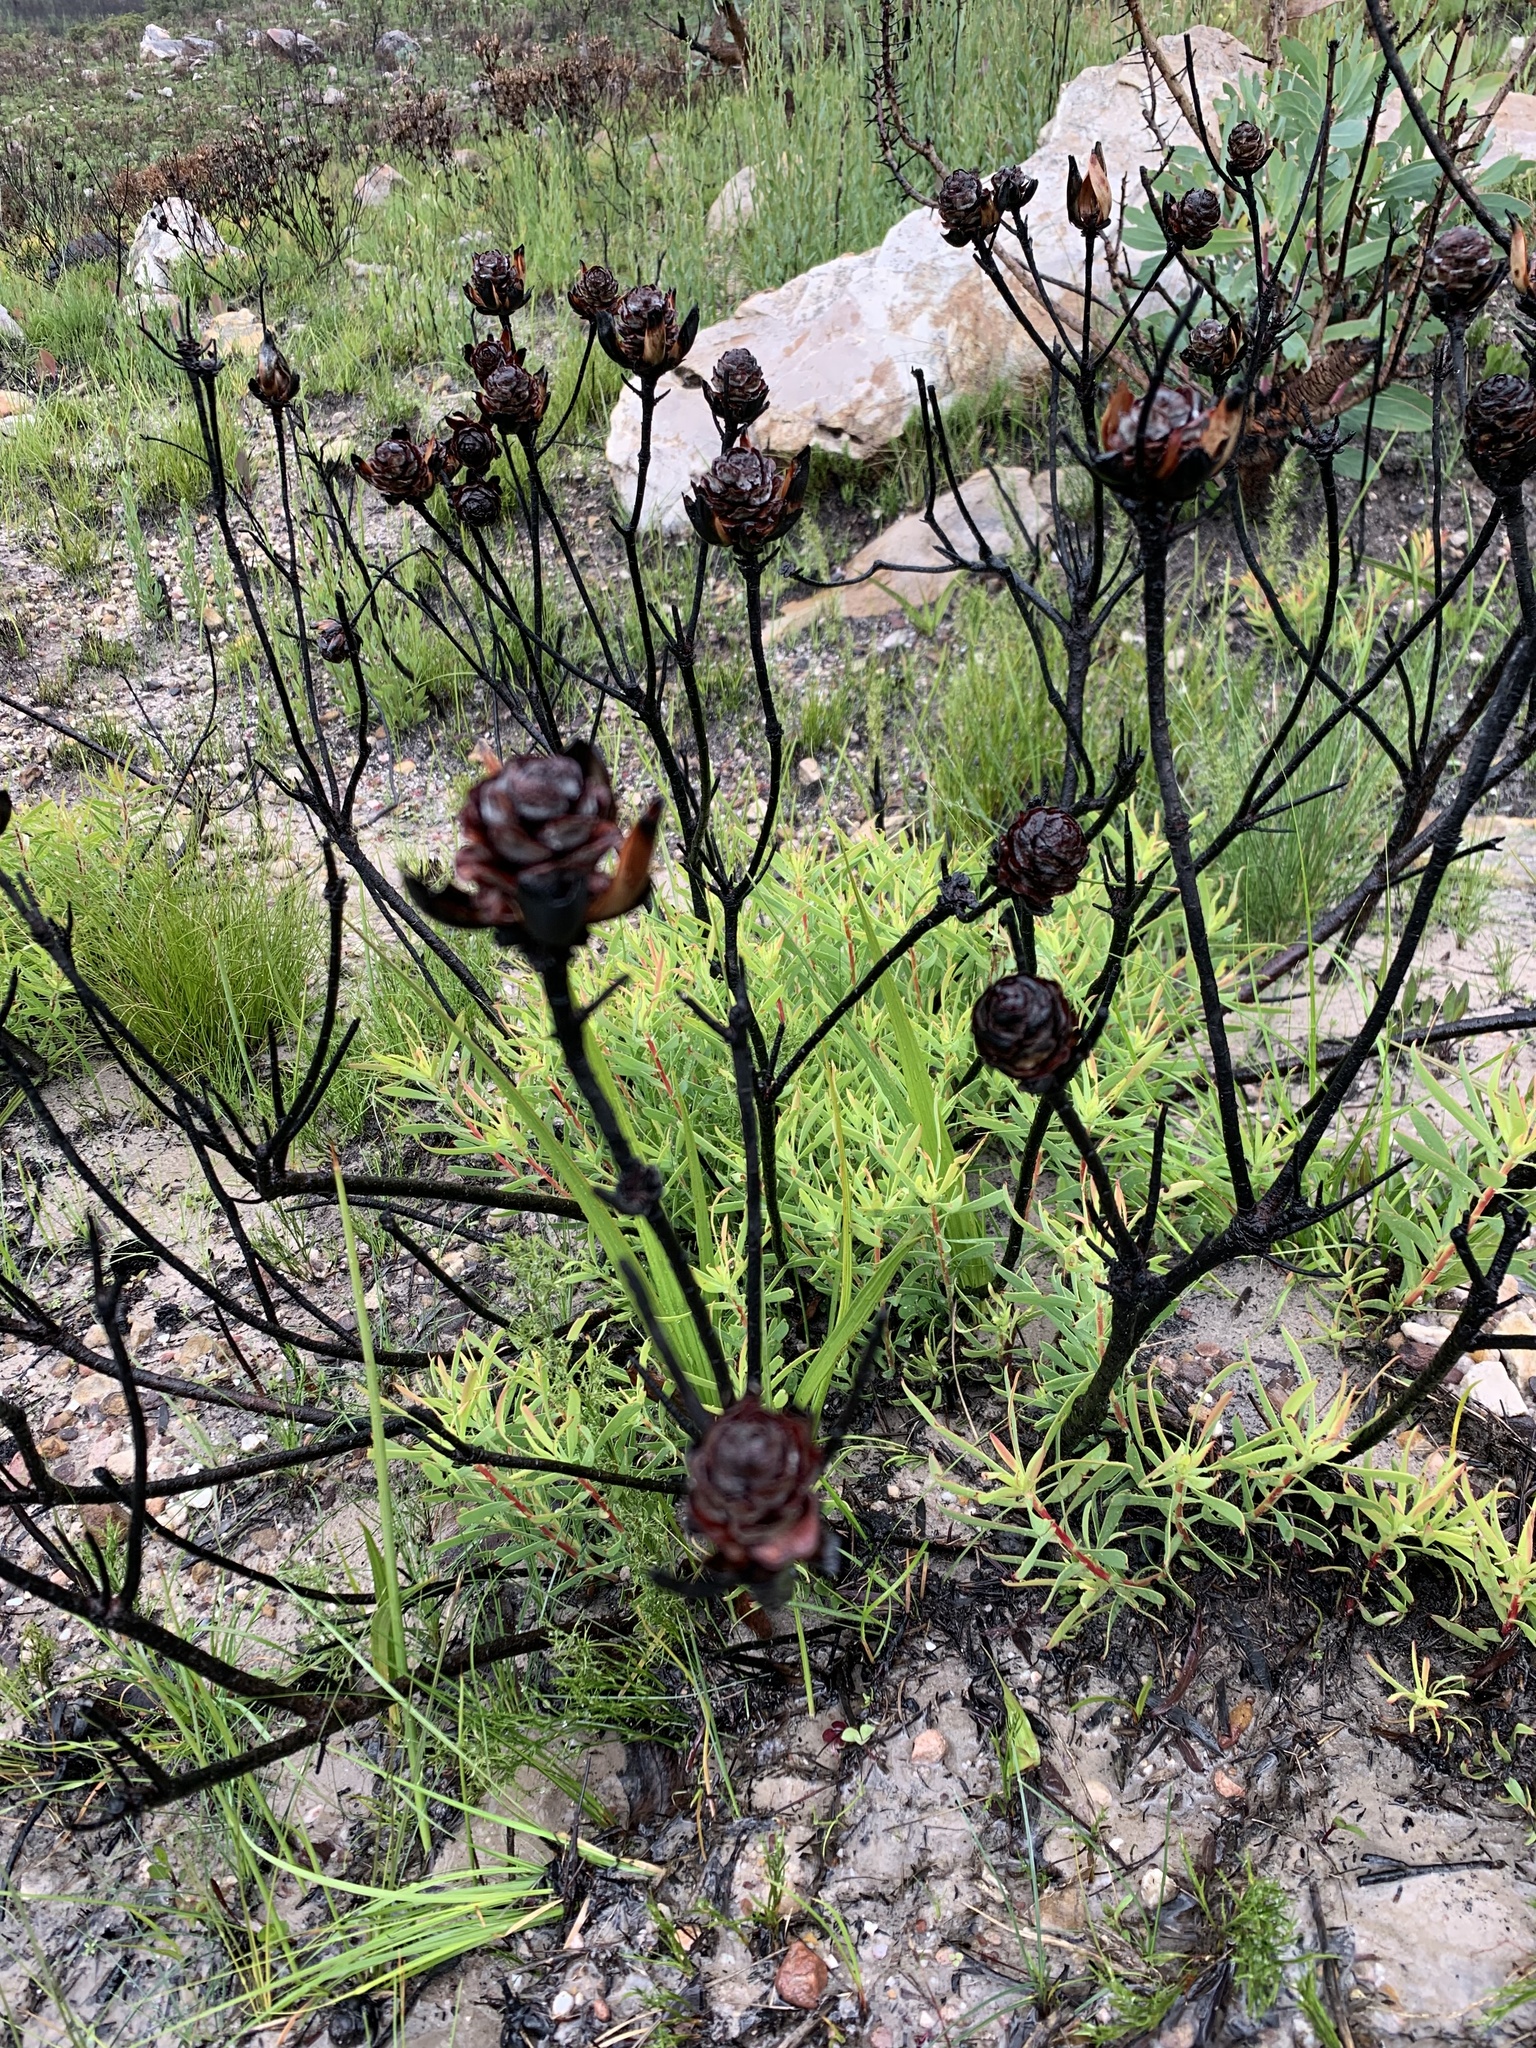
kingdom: Plantae
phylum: Tracheophyta
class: Magnoliopsida
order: Proteales
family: Proteaceae
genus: Leucadendron
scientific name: Leucadendron salignum
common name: Common sunshine conebush
